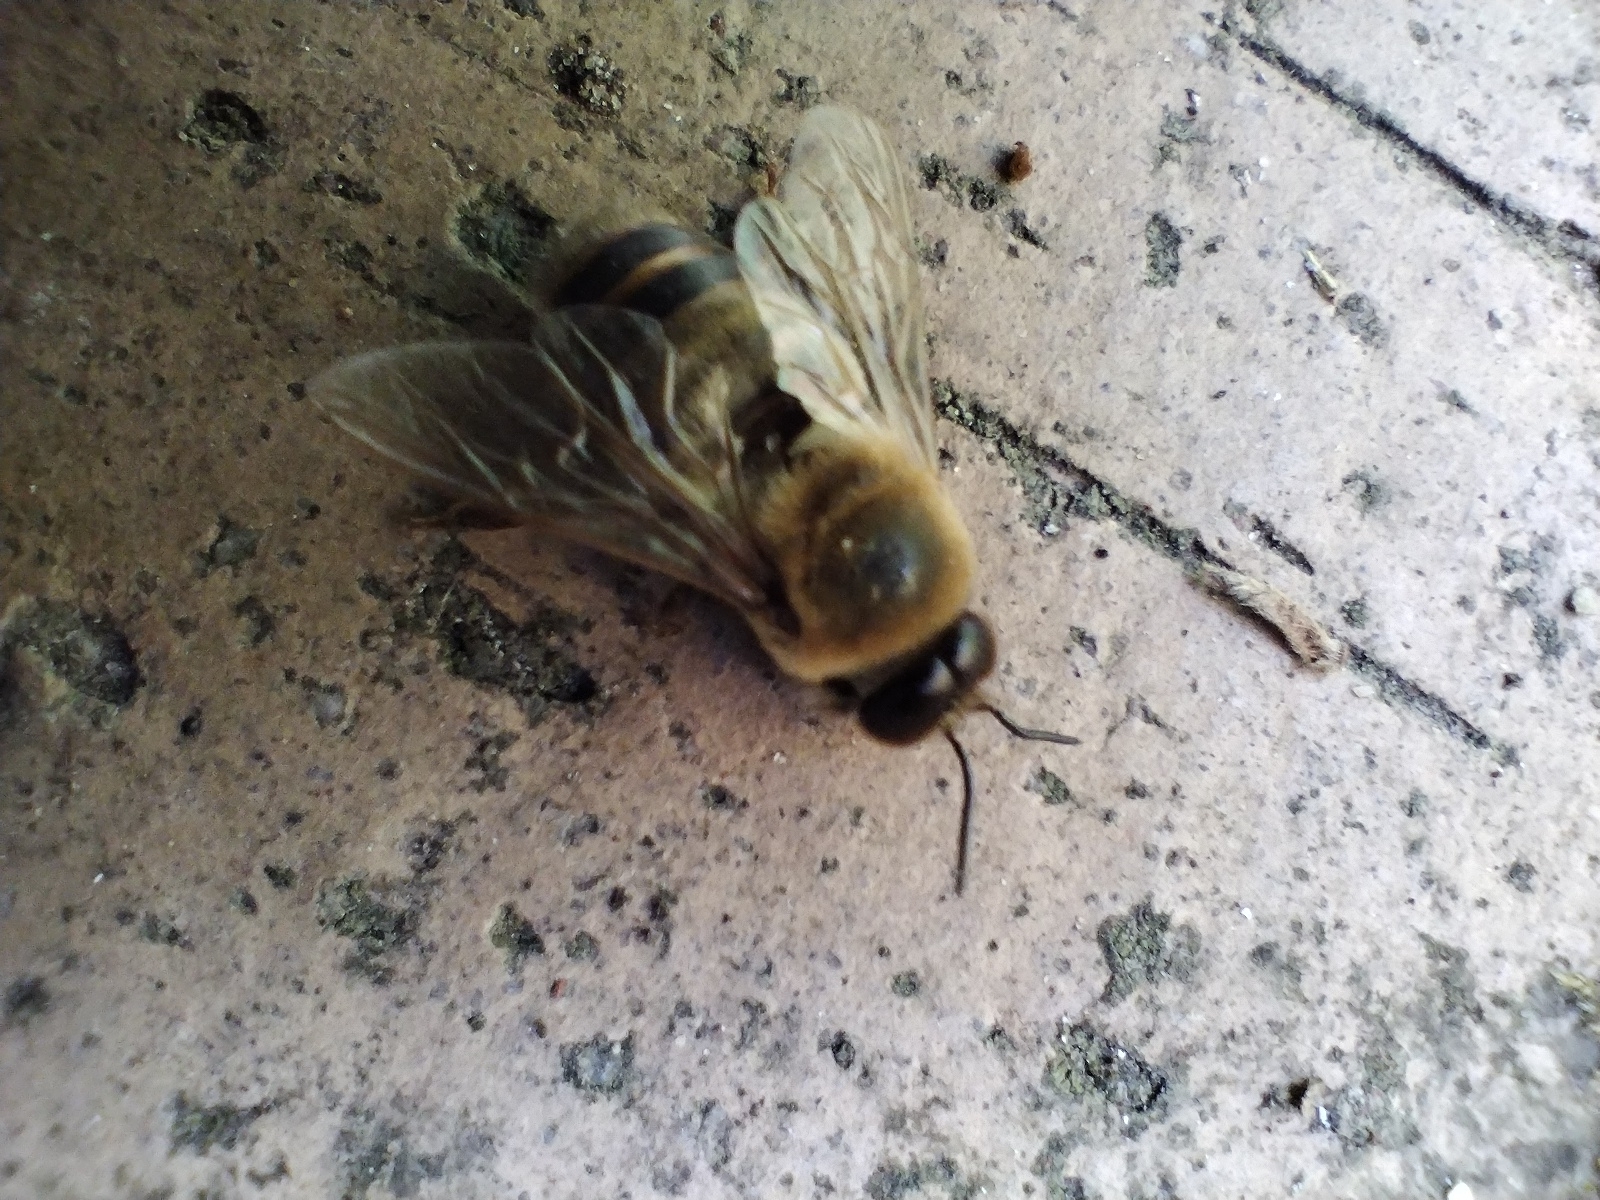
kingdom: Animalia
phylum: Arthropoda
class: Insecta
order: Hymenoptera
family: Apidae
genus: Apis
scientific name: Apis mellifera
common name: Honey bee
